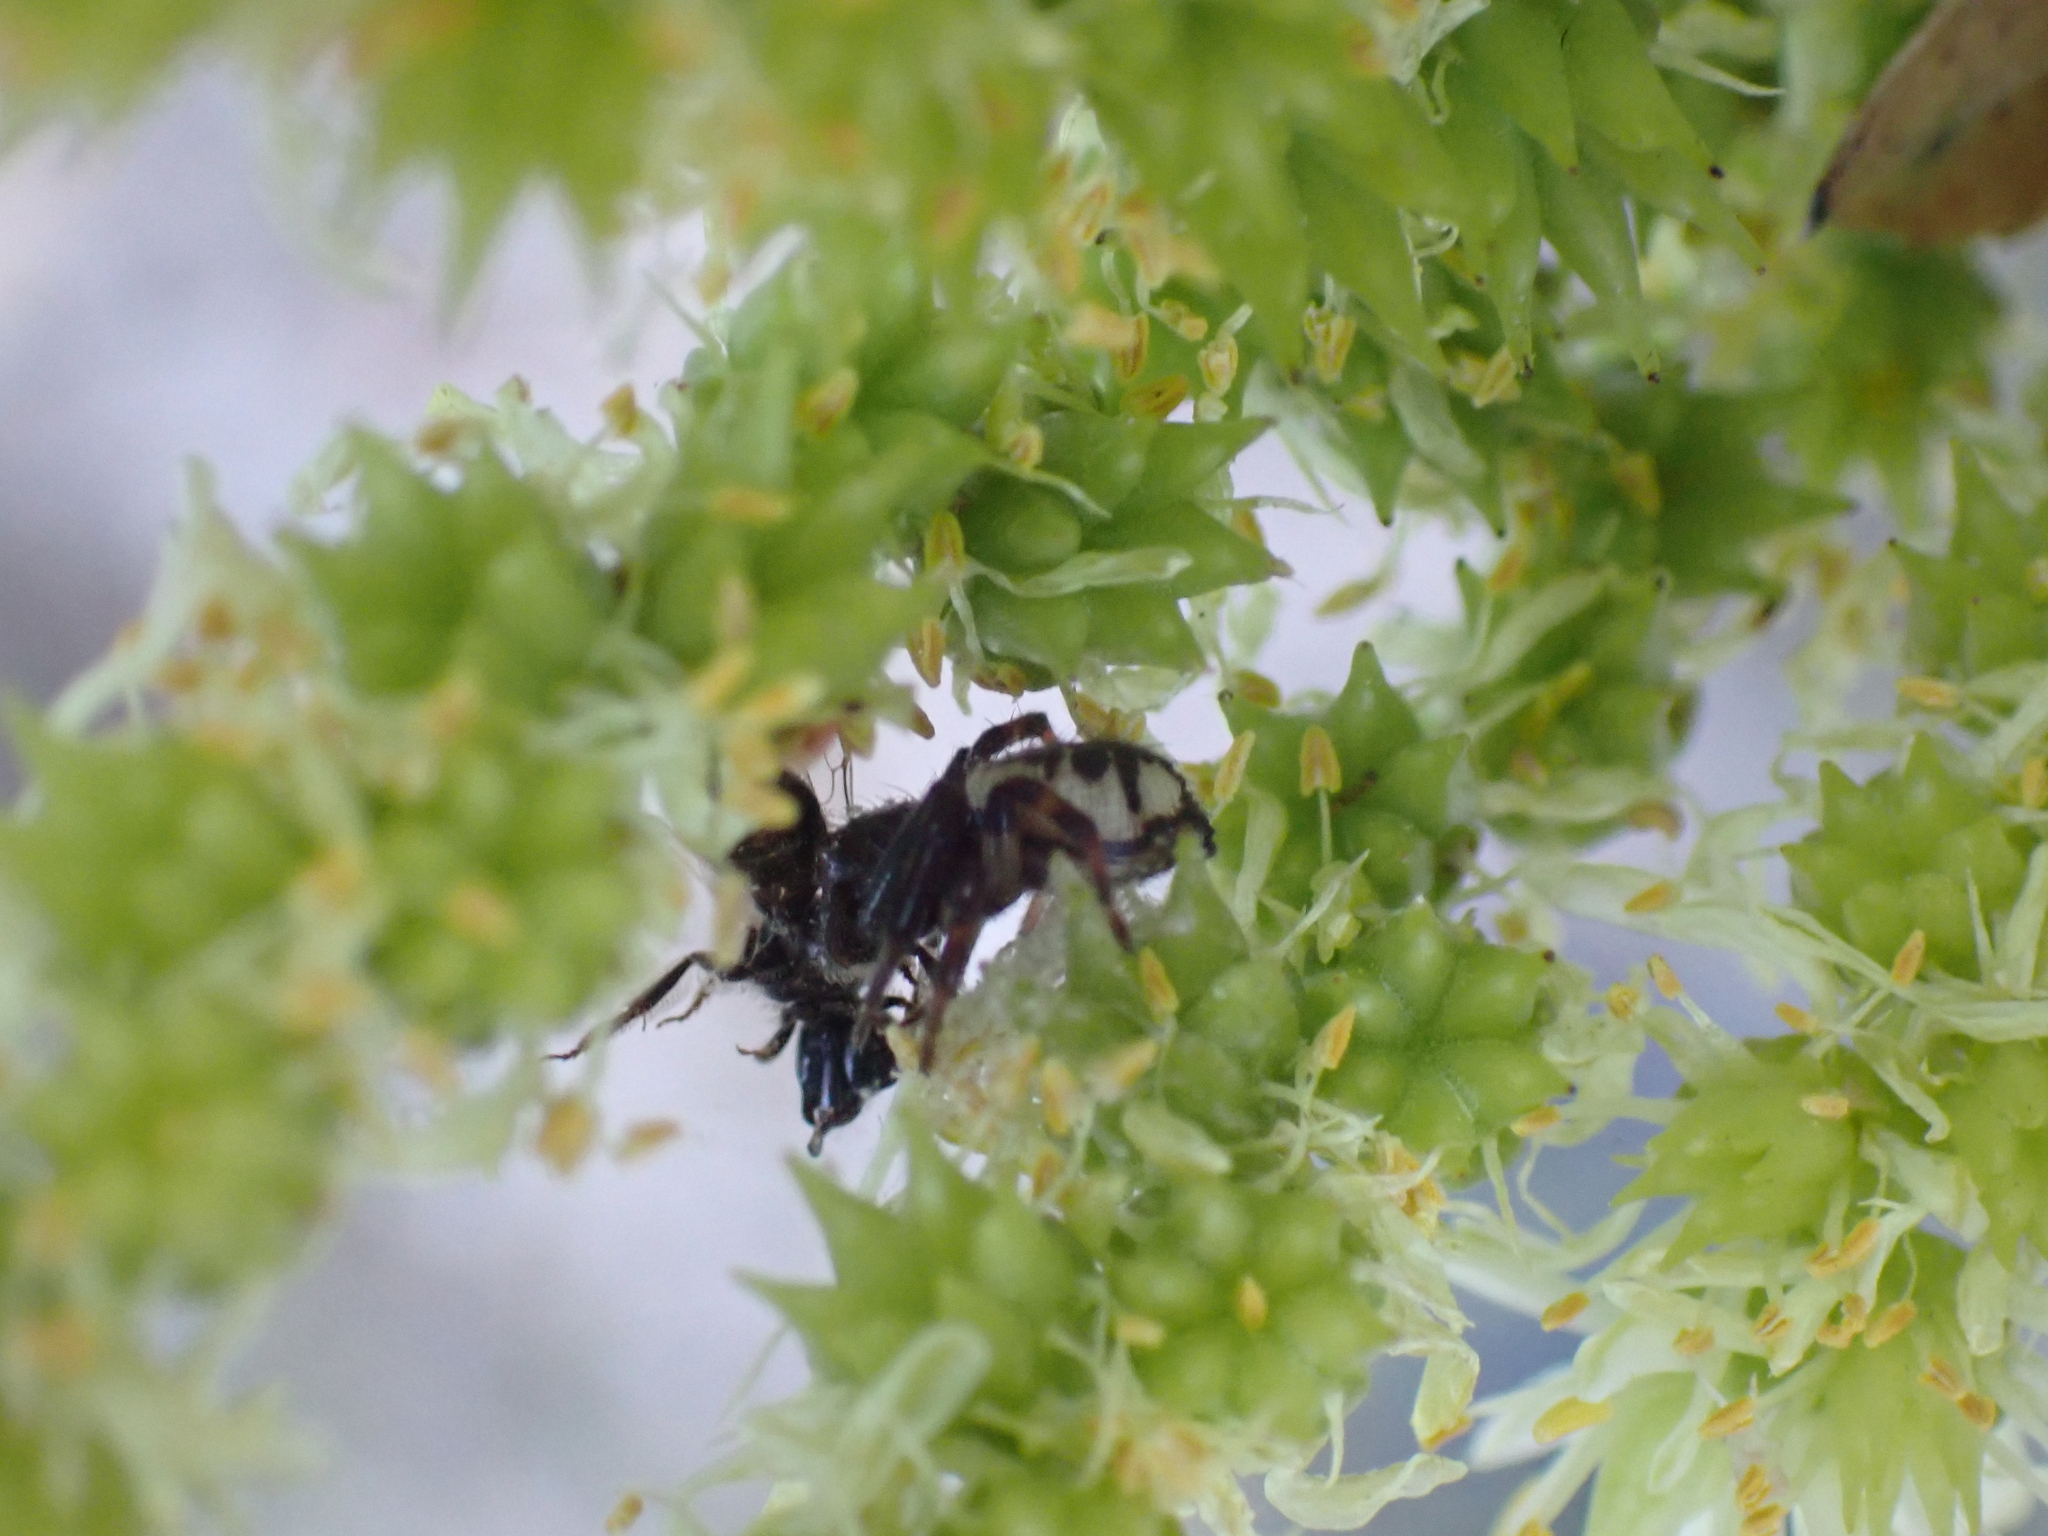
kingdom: Animalia
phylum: Arthropoda
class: Arachnida
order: Araneae
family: Thomisidae
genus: Synema
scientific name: Synema globosum
